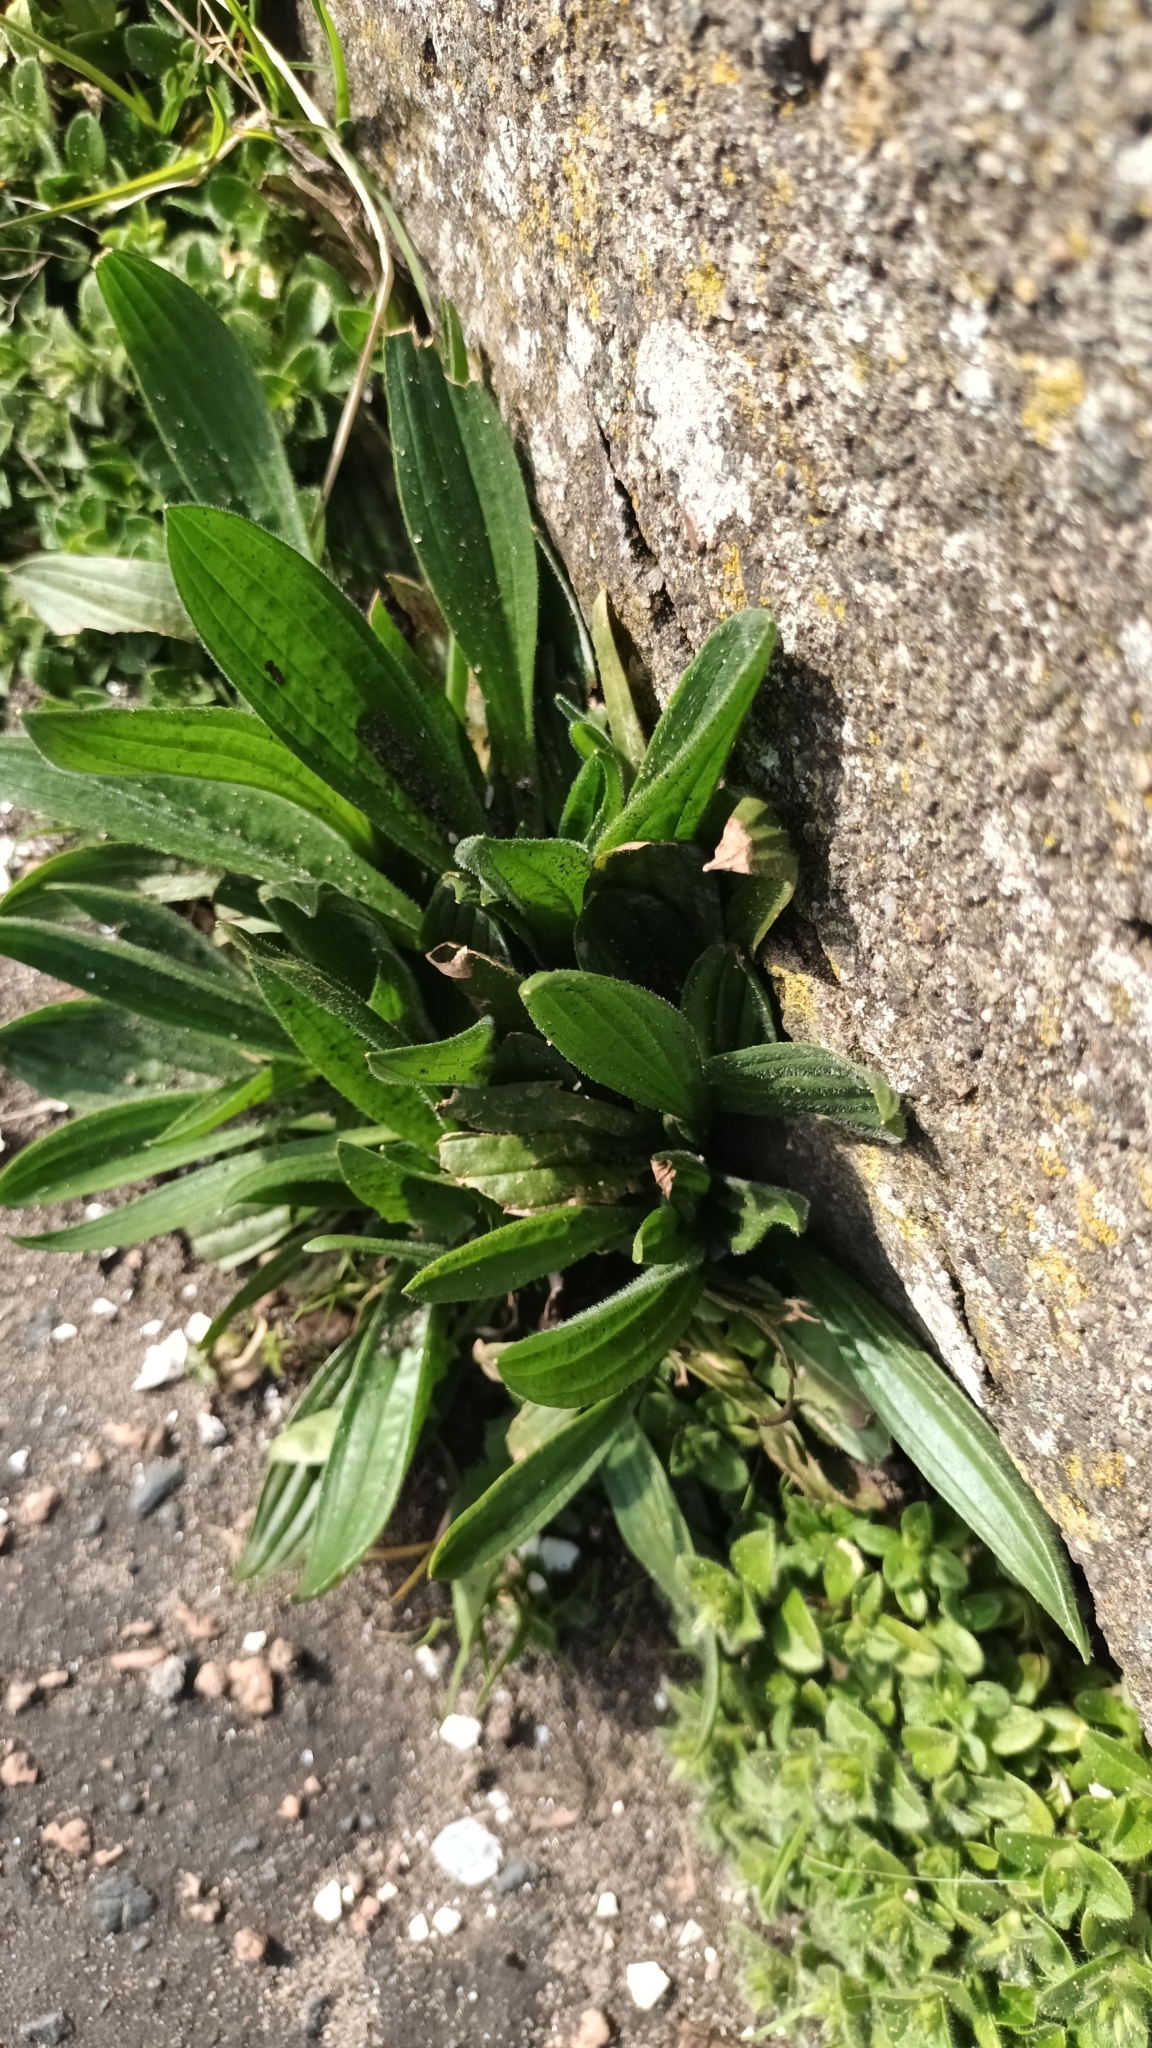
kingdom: Plantae
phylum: Tracheophyta
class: Magnoliopsida
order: Lamiales
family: Plantaginaceae
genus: Plantago
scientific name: Plantago lanceolata
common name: Ribwort plantain
